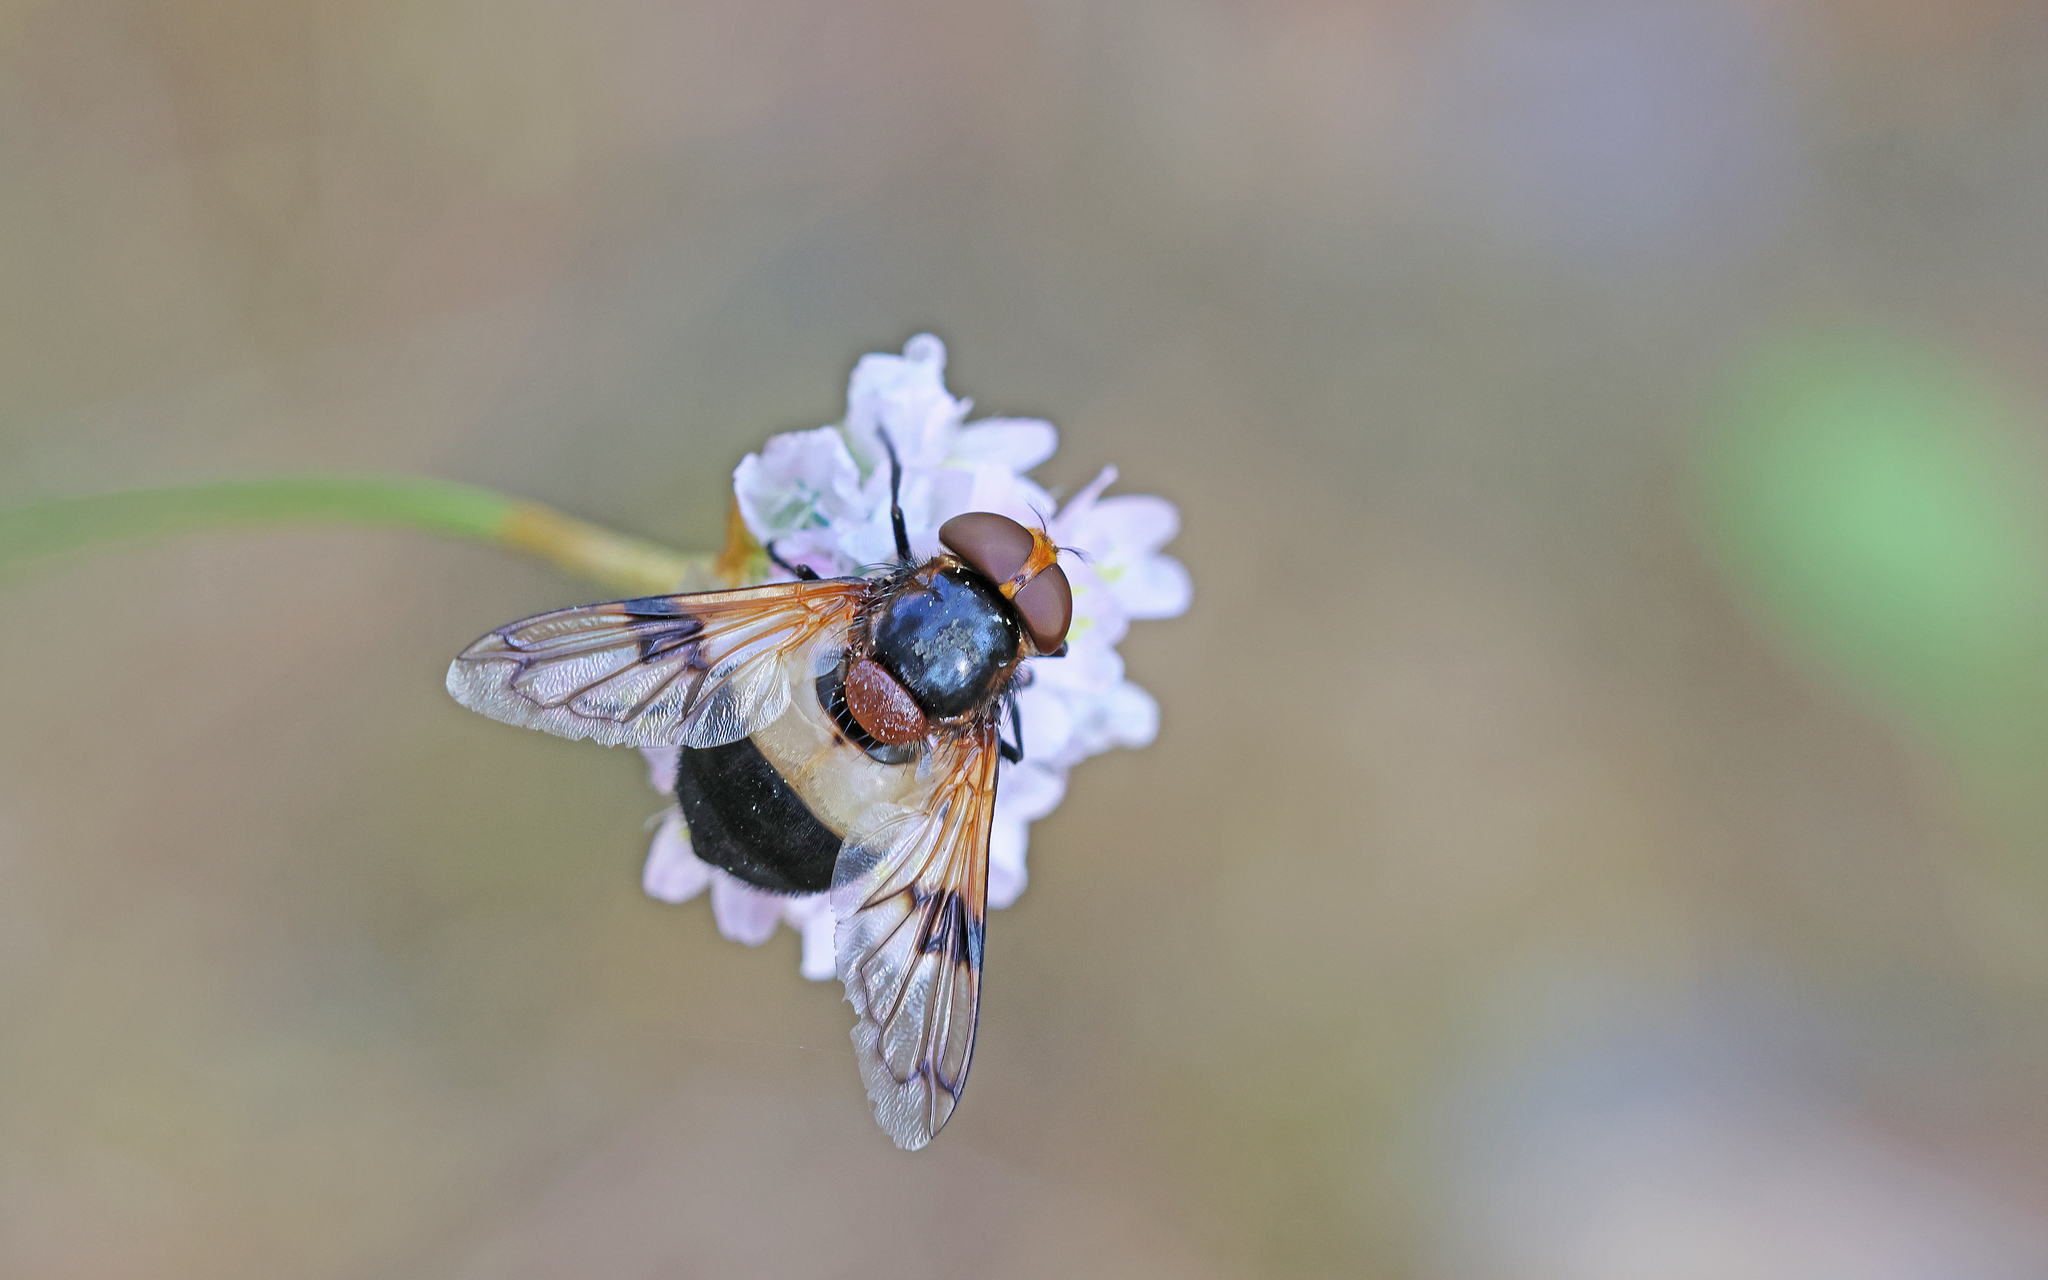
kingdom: Animalia
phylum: Arthropoda
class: Insecta
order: Diptera
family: Syrphidae
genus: Volucella
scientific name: Volucella pellucens
